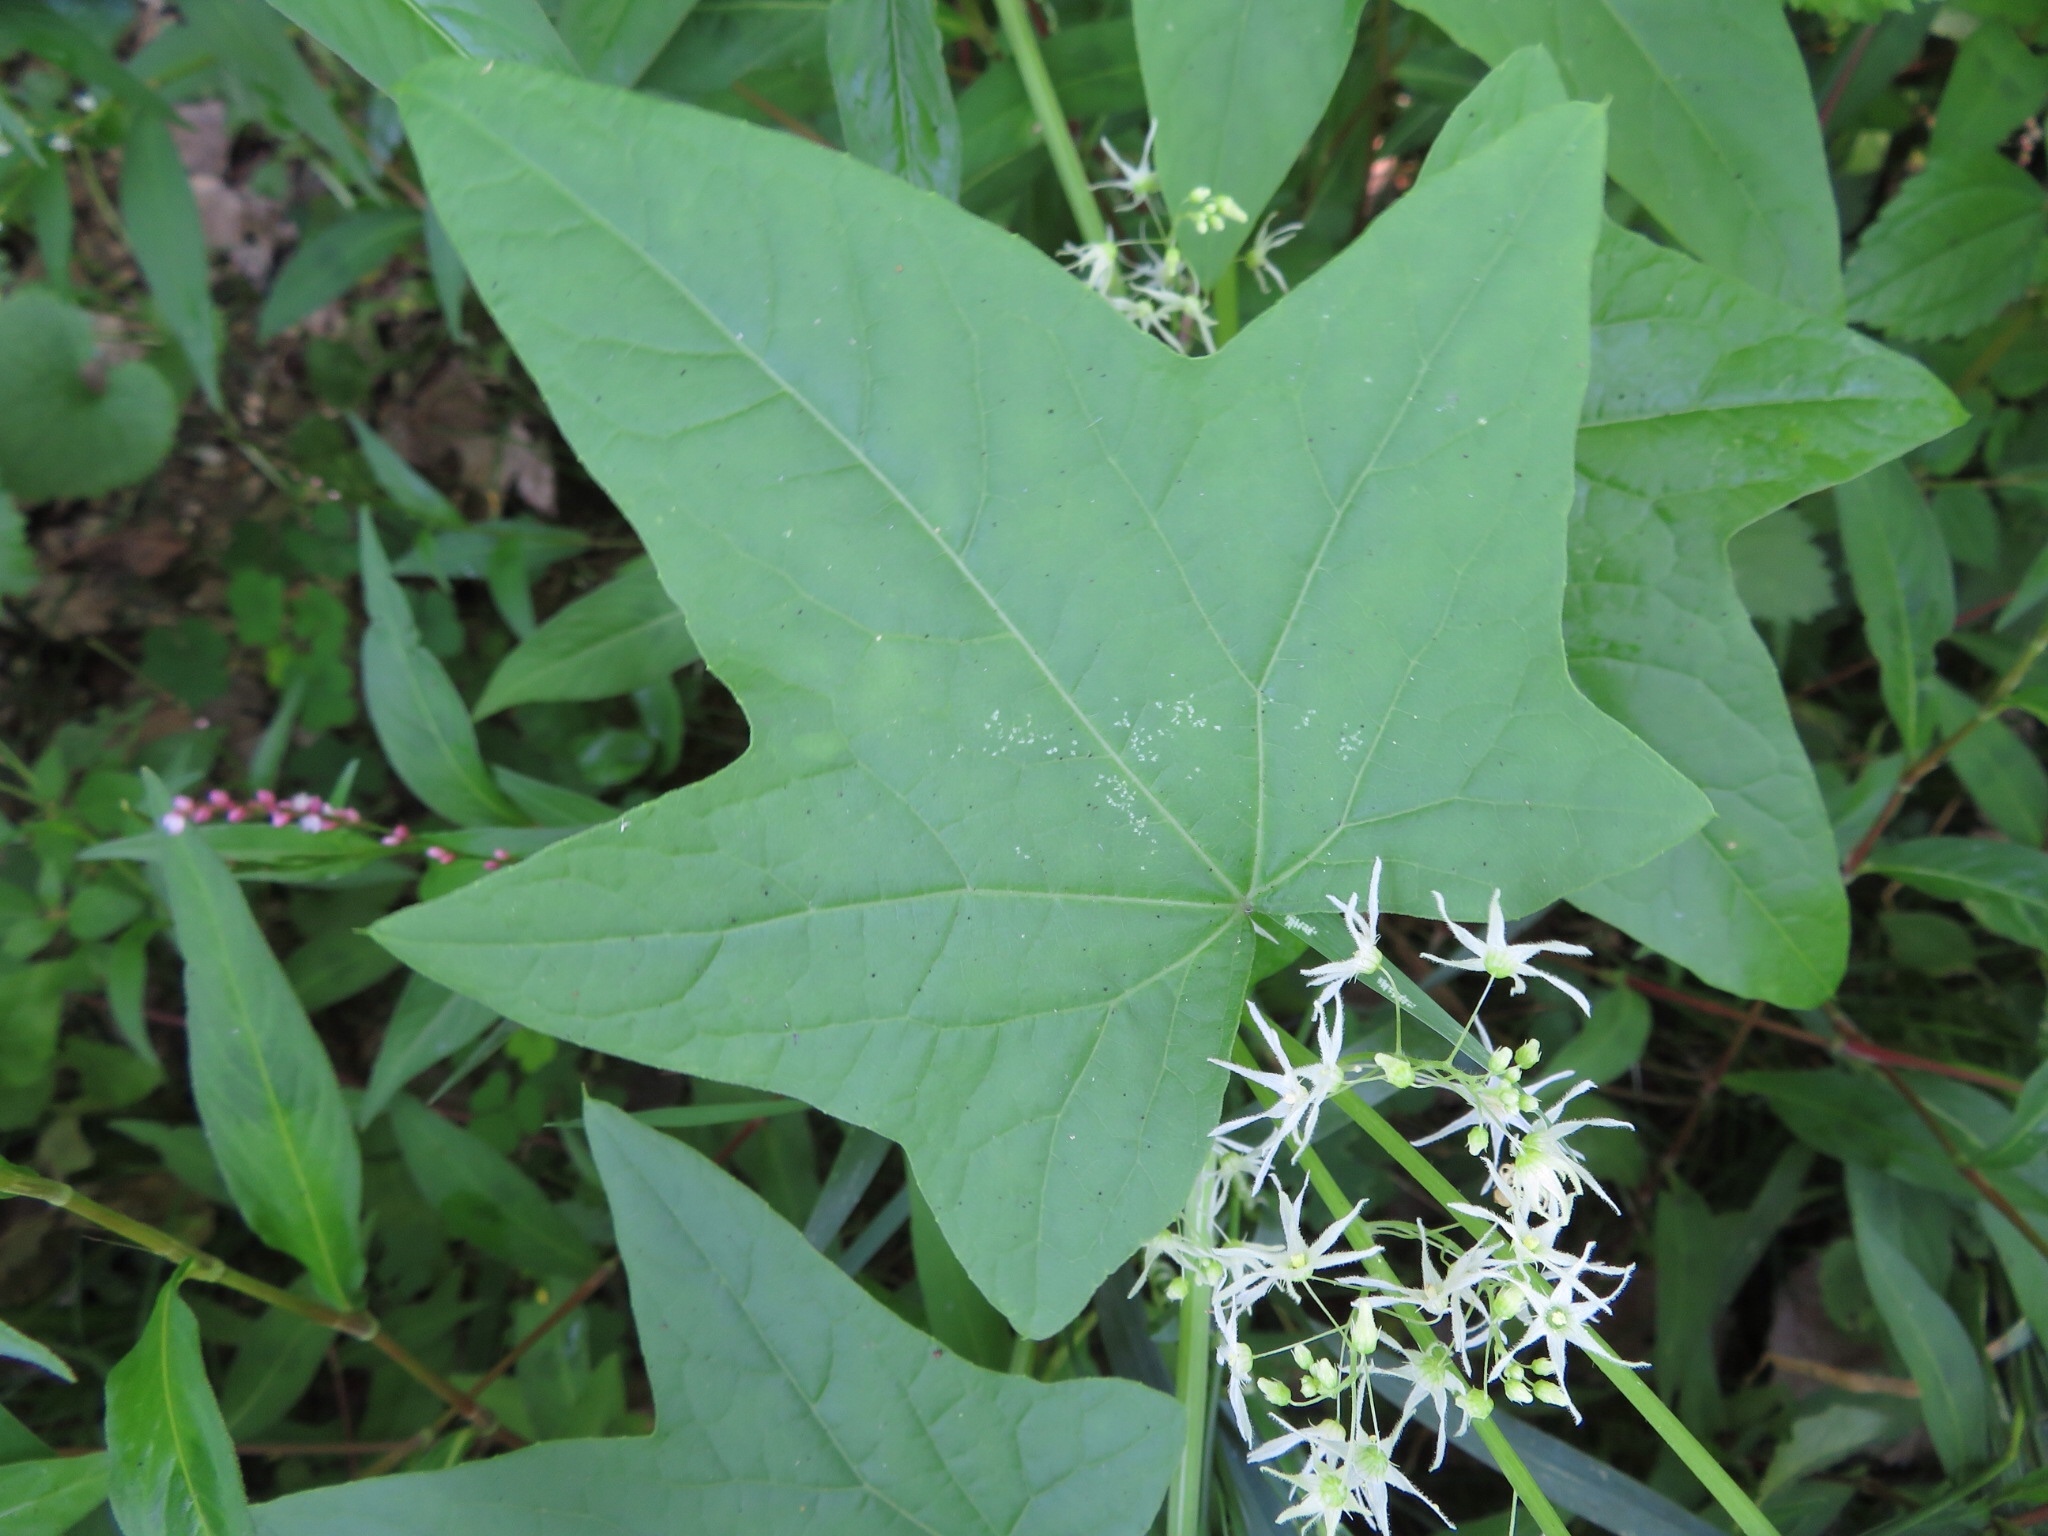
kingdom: Plantae
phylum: Tracheophyta
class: Magnoliopsida
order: Cucurbitales
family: Cucurbitaceae
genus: Echinocystis
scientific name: Echinocystis lobata
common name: Wild cucumber
